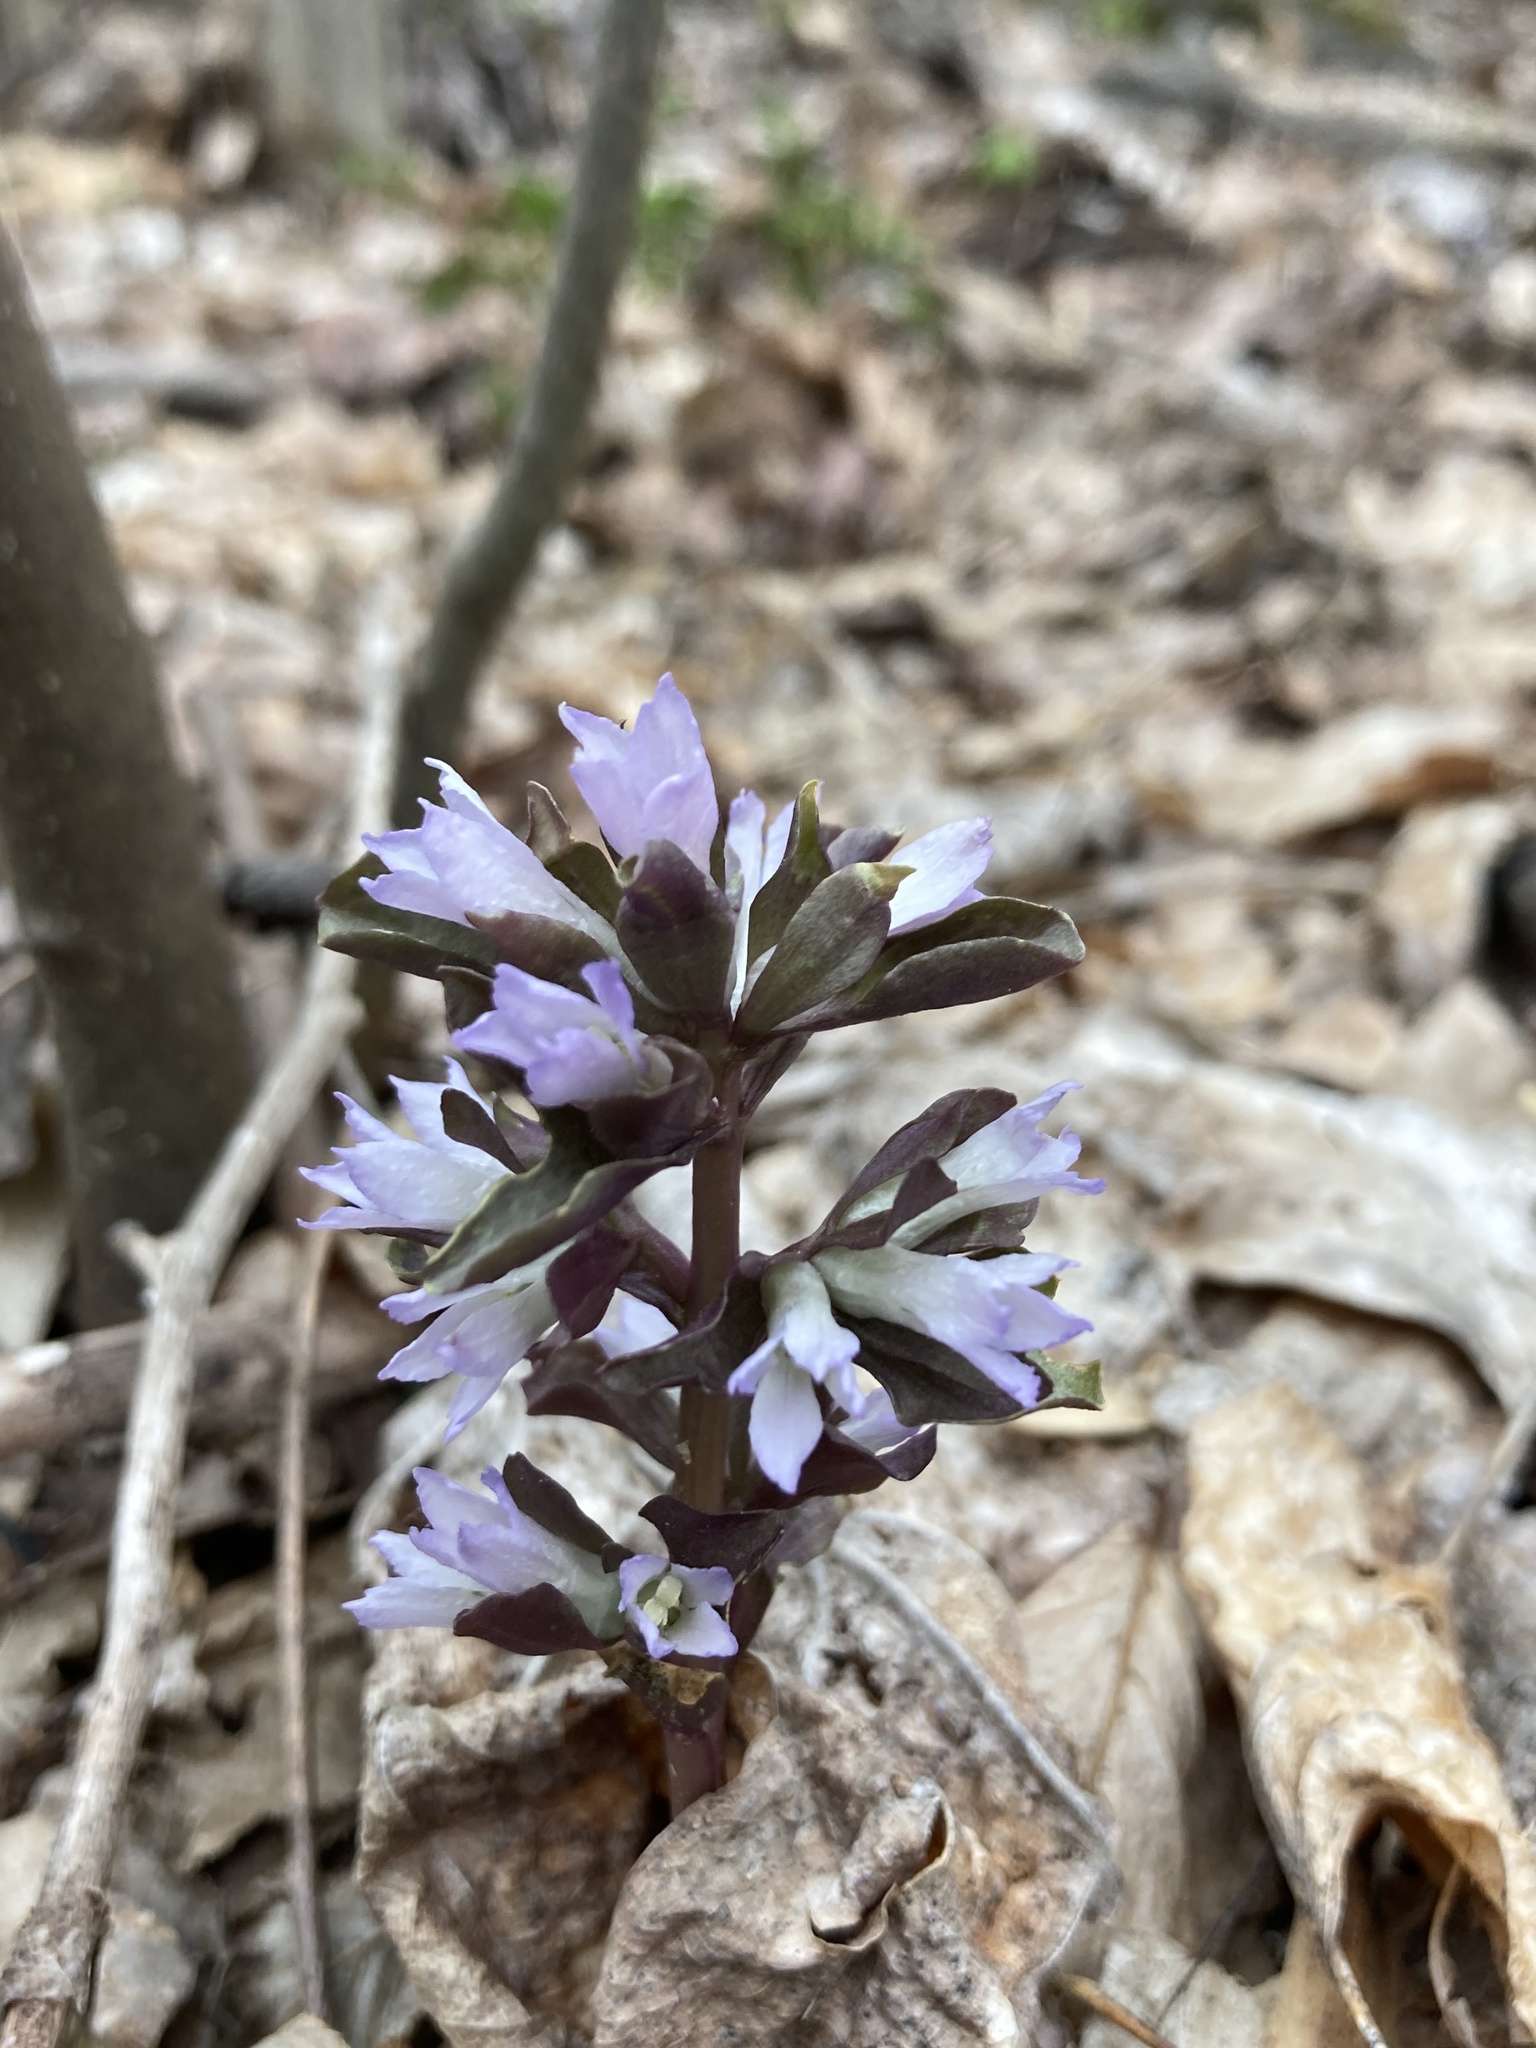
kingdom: Plantae
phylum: Tracheophyta
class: Magnoliopsida
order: Gentianales
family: Gentianaceae
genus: Obolaria
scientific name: Obolaria virginica
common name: Pennywort
